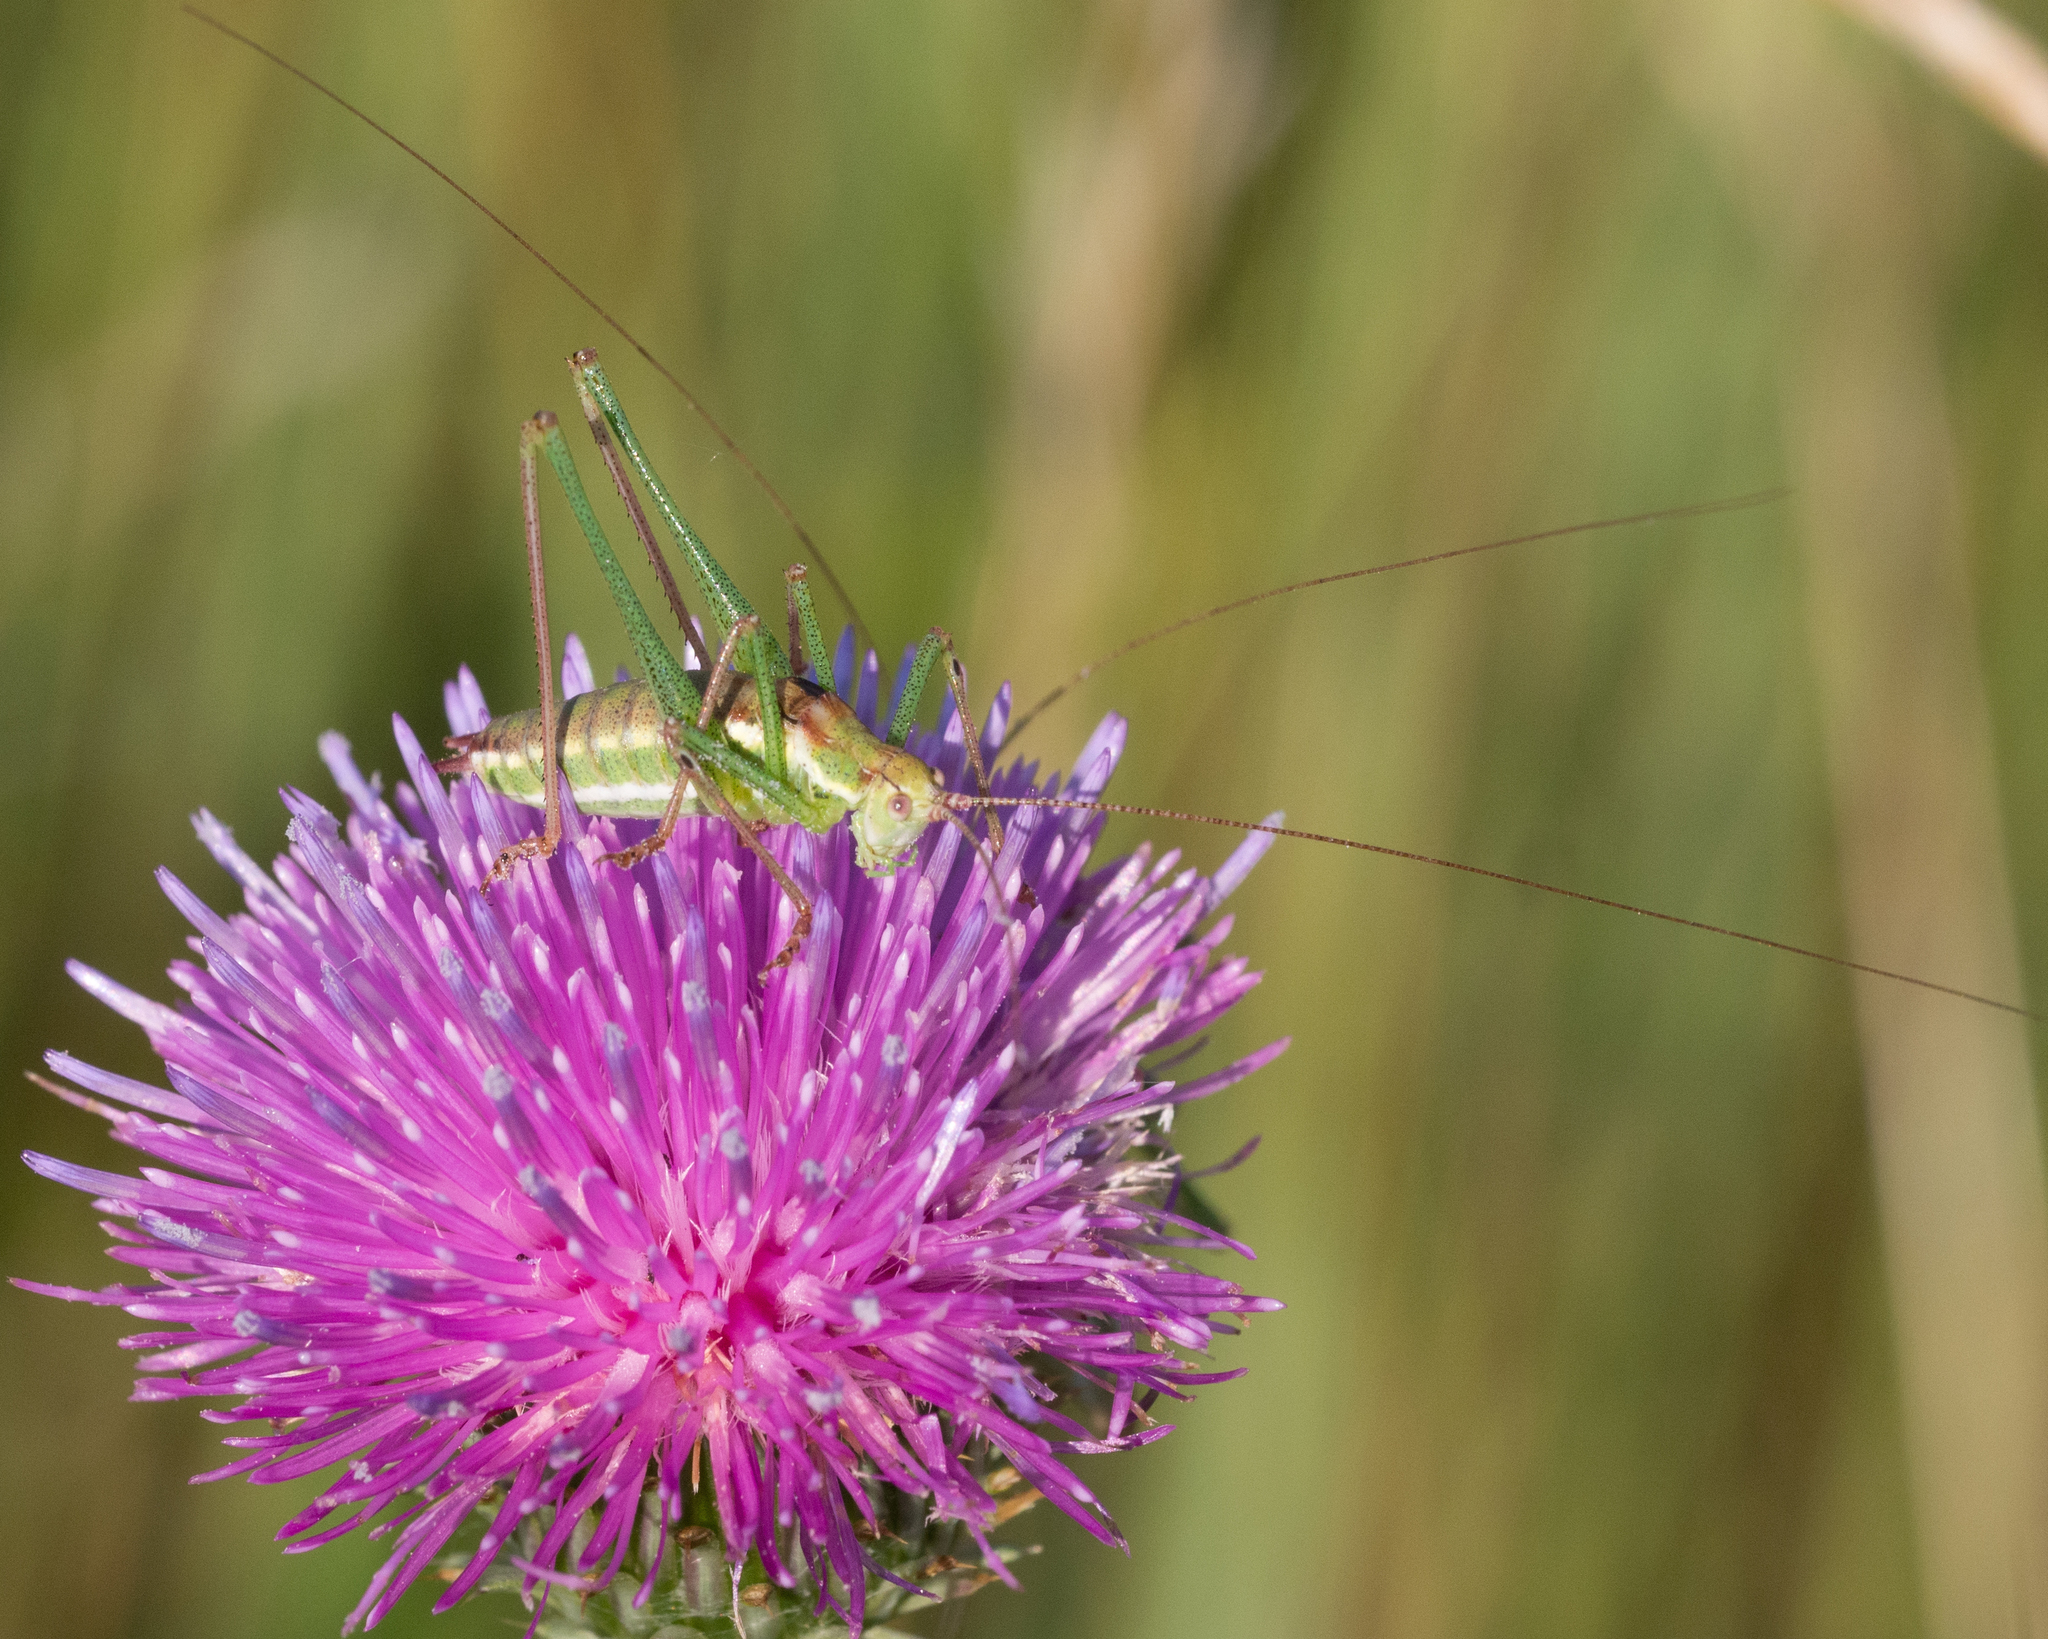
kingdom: Animalia
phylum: Arthropoda
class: Insecta
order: Orthoptera
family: Tettigoniidae
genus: Leptophyes
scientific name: Leptophyes albovittata
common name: Striped bush-cricket
